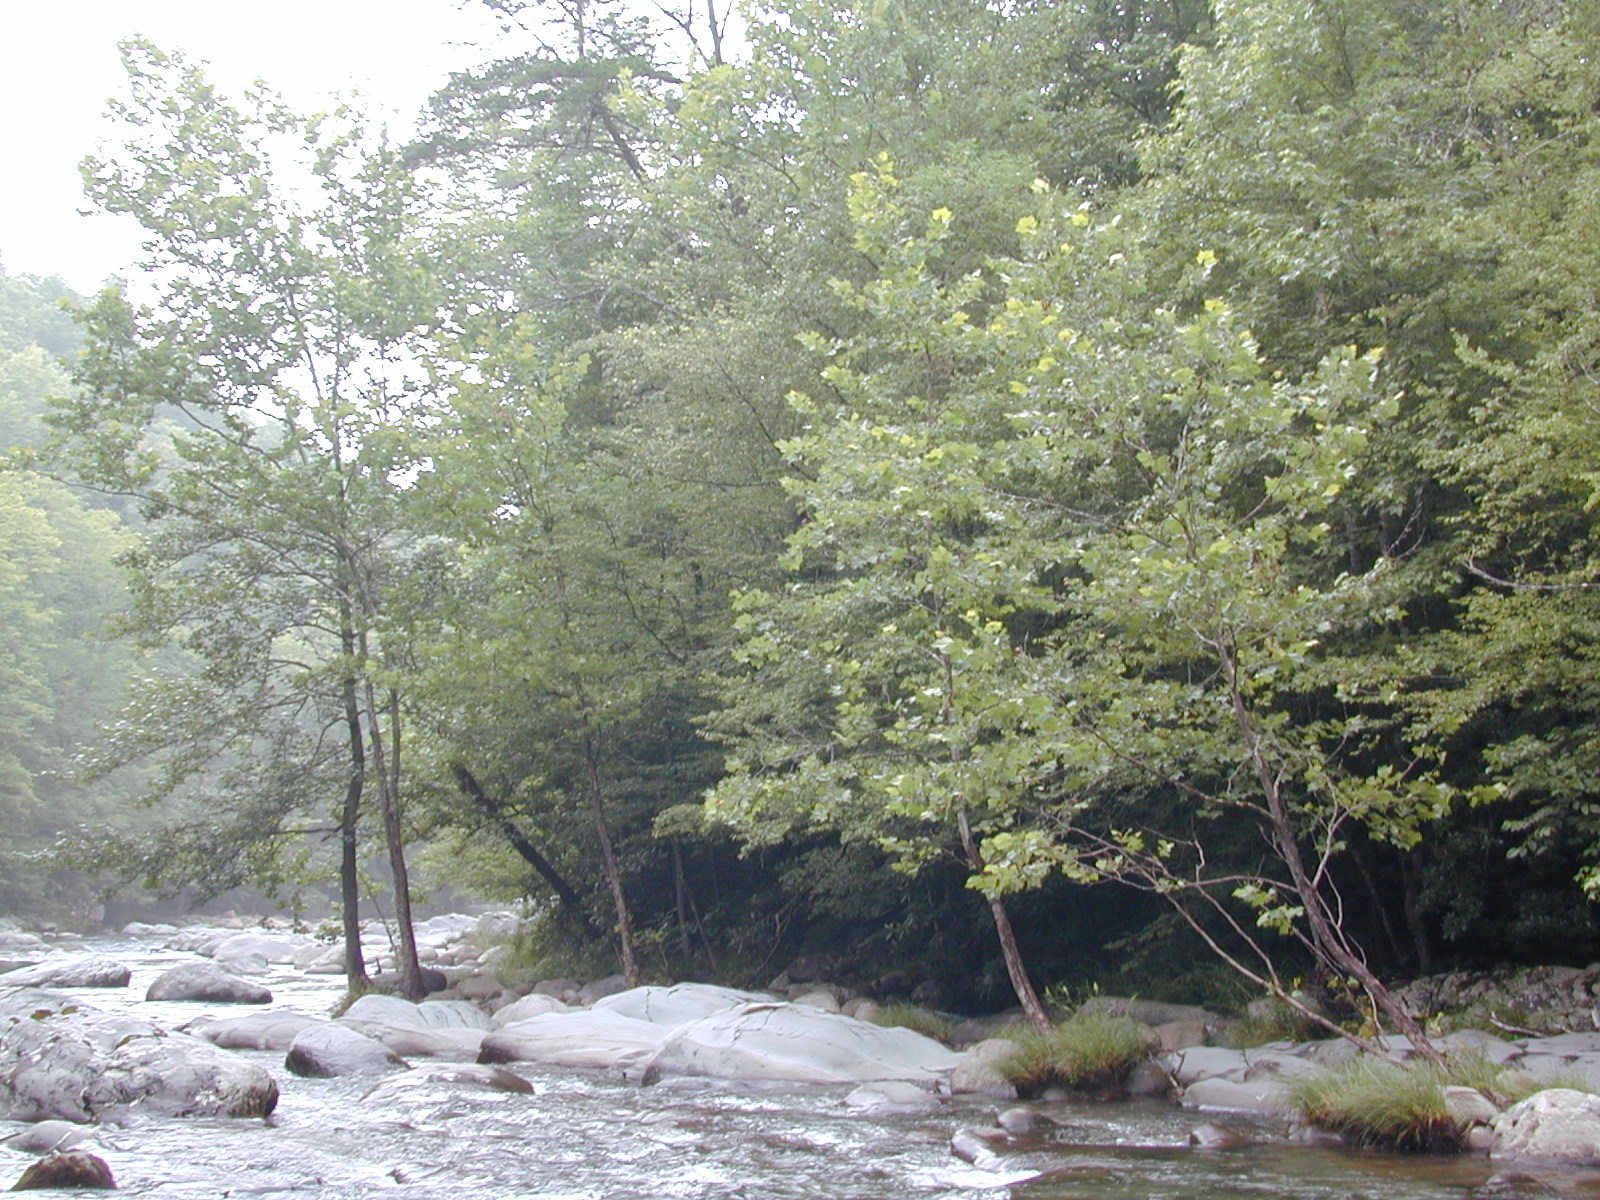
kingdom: Plantae
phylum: Tracheophyta
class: Magnoliopsida
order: Proteales
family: Platanaceae
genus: Platanus
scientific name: Platanus occidentalis
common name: American sycamore
